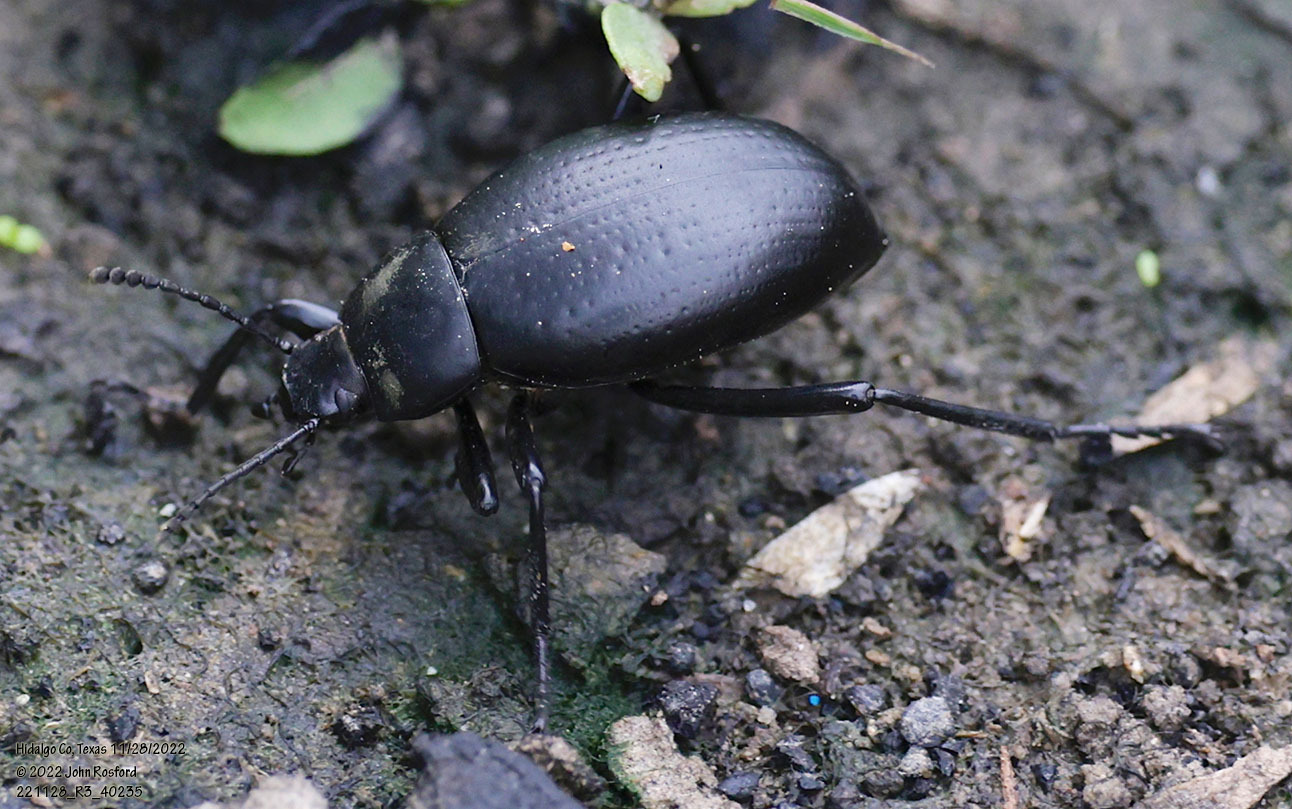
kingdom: Animalia
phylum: Arthropoda
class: Insecta
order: Coleoptera
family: Tenebrionidae
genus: Eleodes
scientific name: Eleodes goryi
